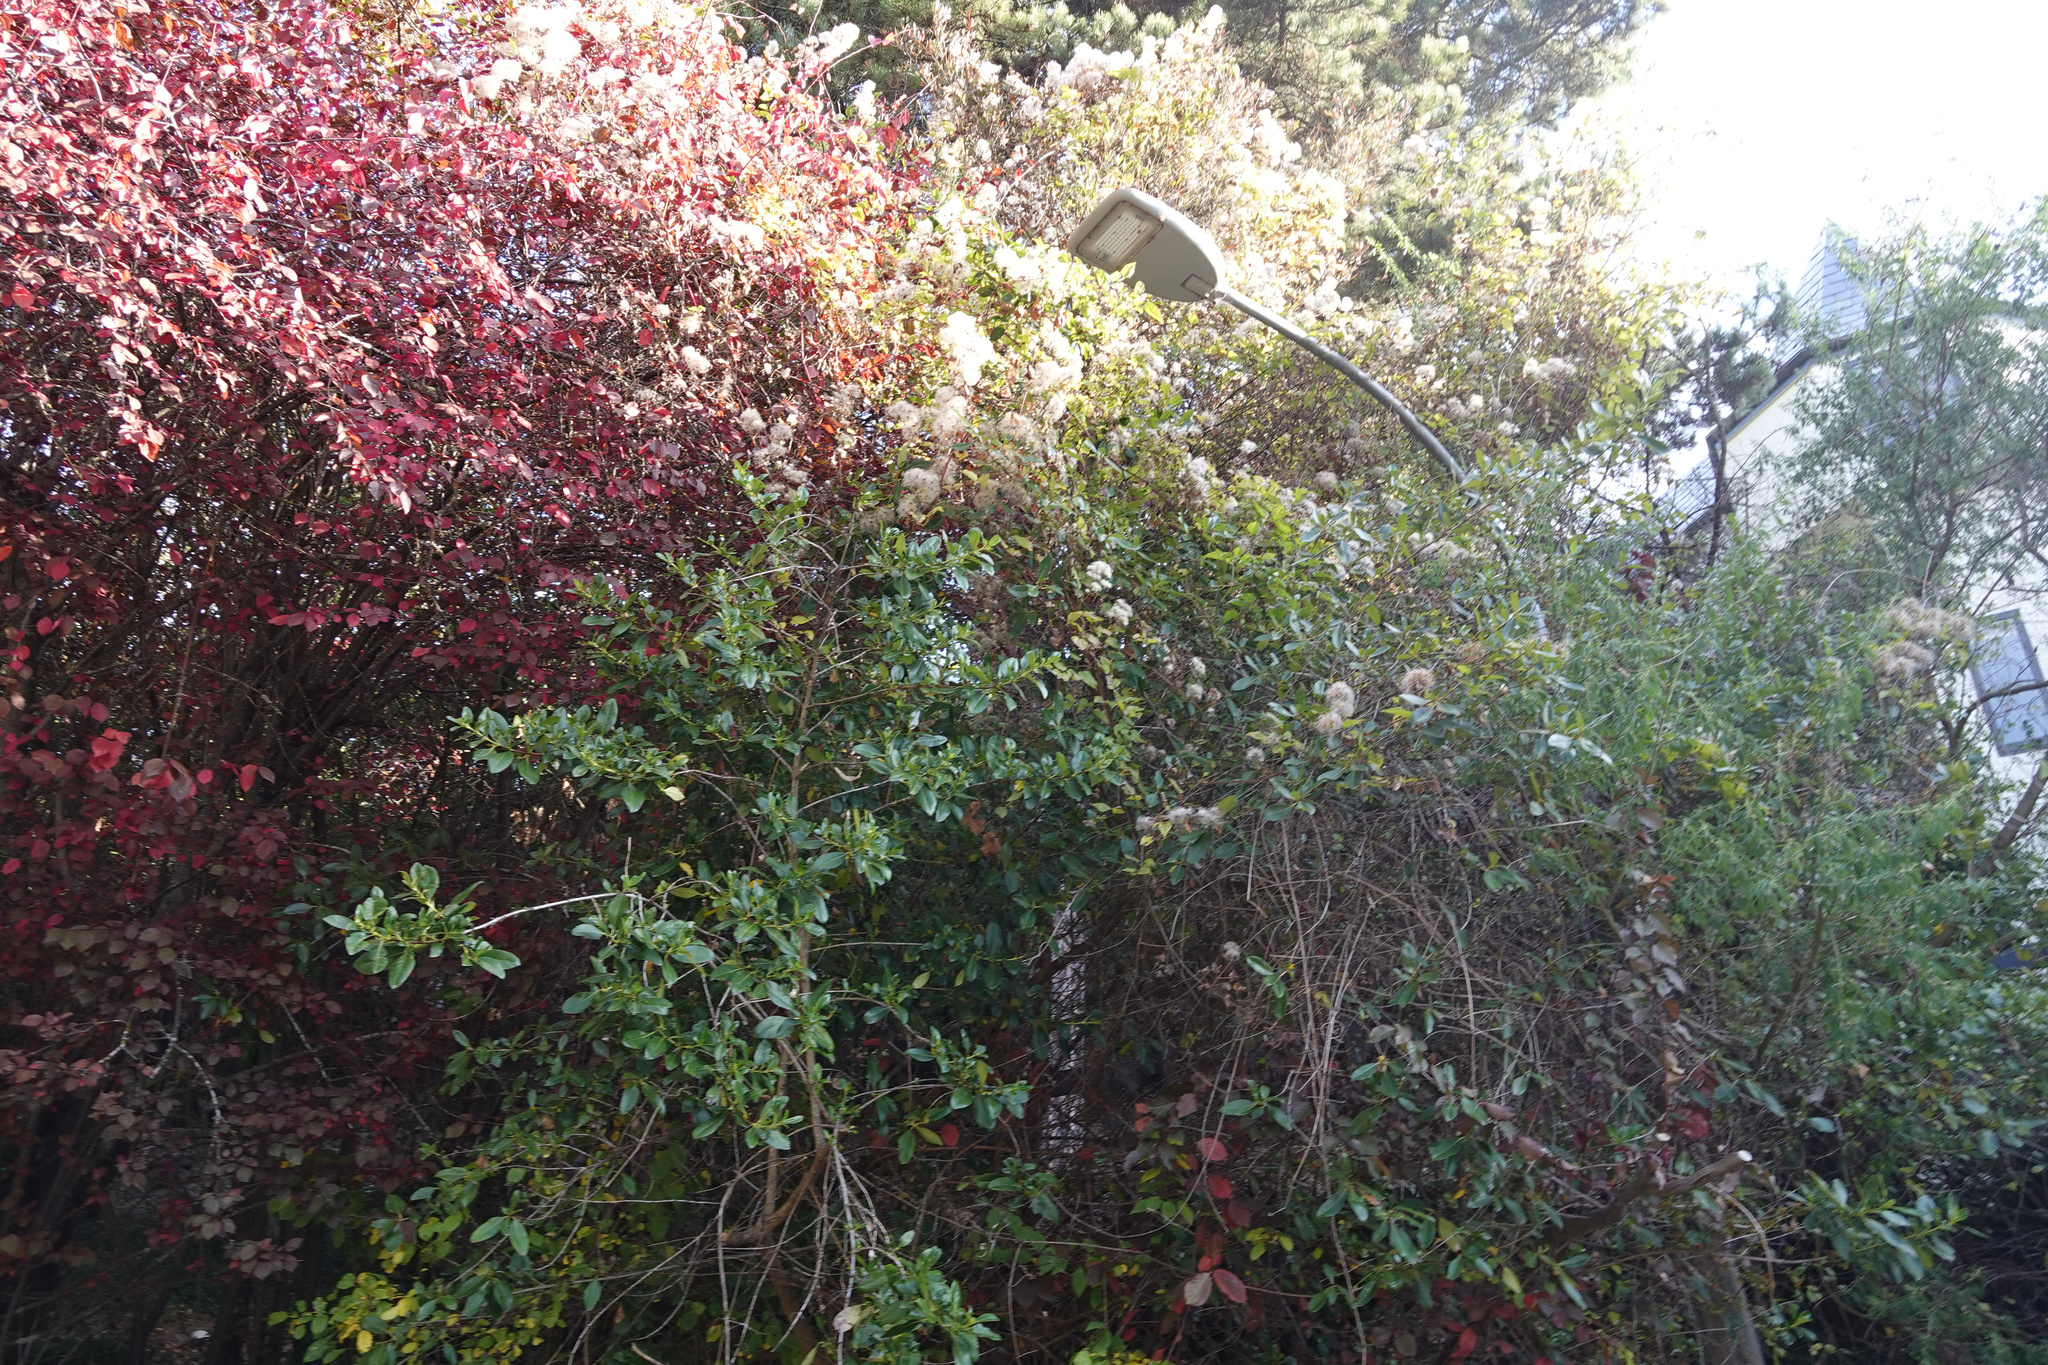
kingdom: Plantae
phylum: Tracheophyta
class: Magnoliopsida
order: Ranunculales
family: Ranunculaceae
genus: Clematis
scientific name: Clematis vitalba
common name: Evergreen clematis
